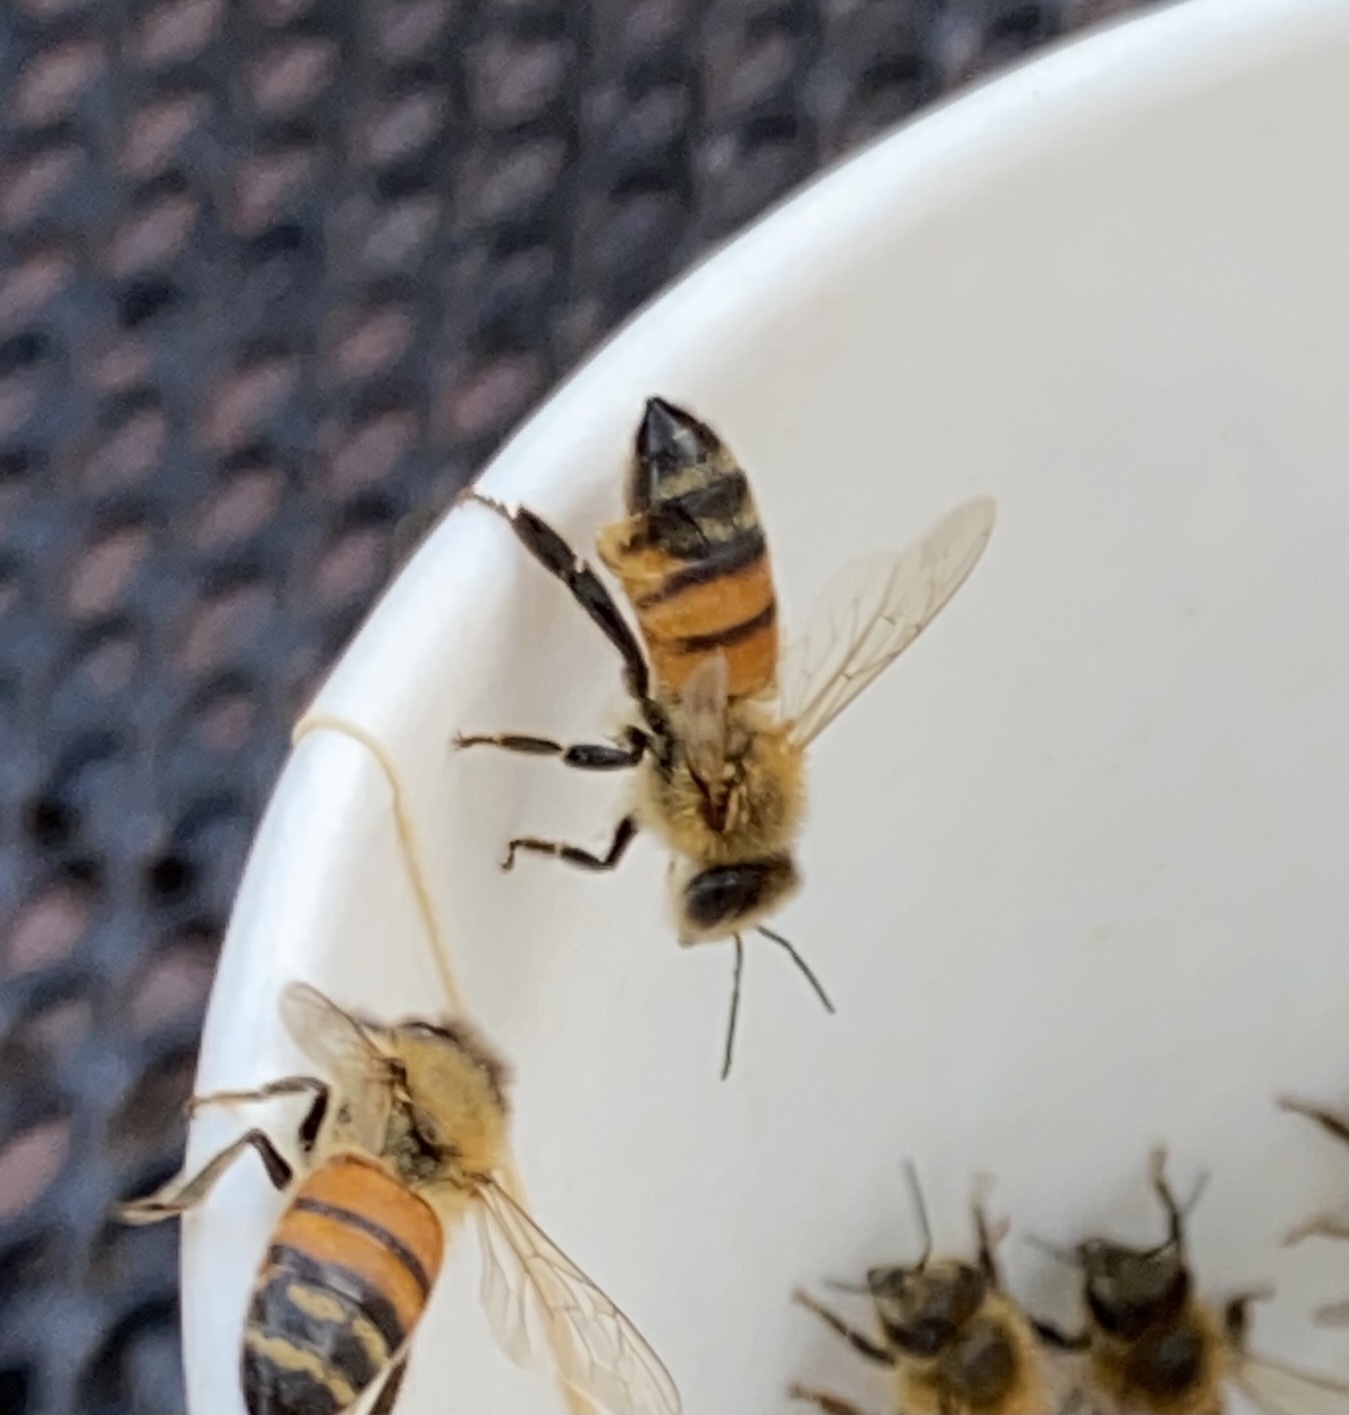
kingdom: Animalia
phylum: Arthropoda
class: Insecta
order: Hymenoptera
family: Apidae
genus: Apis
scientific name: Apis mellifera
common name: Honey bee
